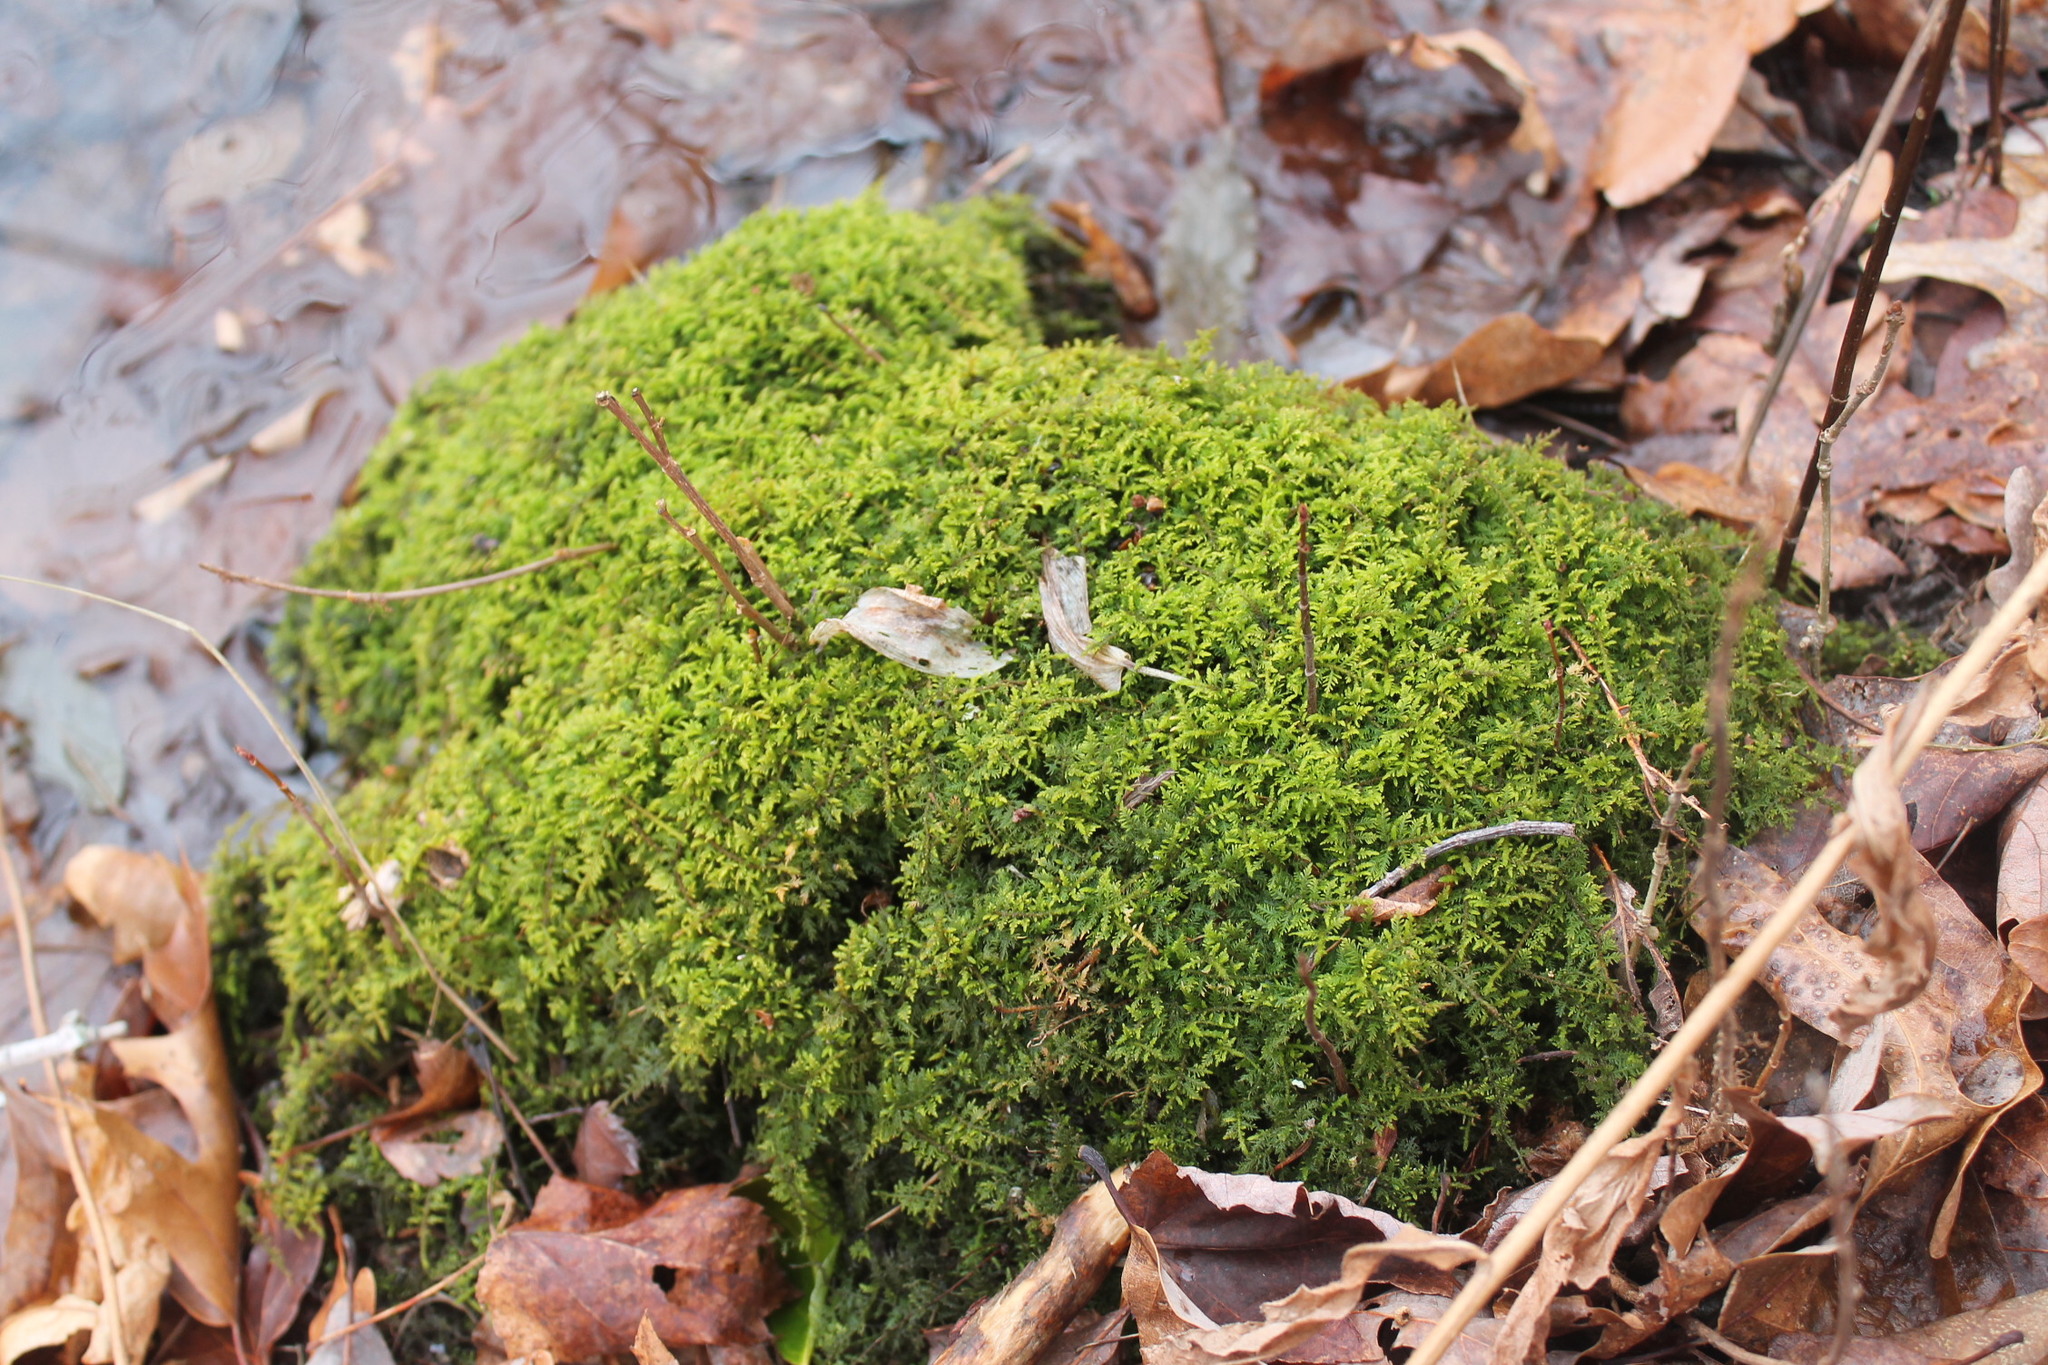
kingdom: Plantae
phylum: Bryophyta
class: Bryopsida
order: Hypnales
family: Thuidiaceae
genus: Thuidium
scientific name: Thuidium delicatulum
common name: Delicate fern moss
